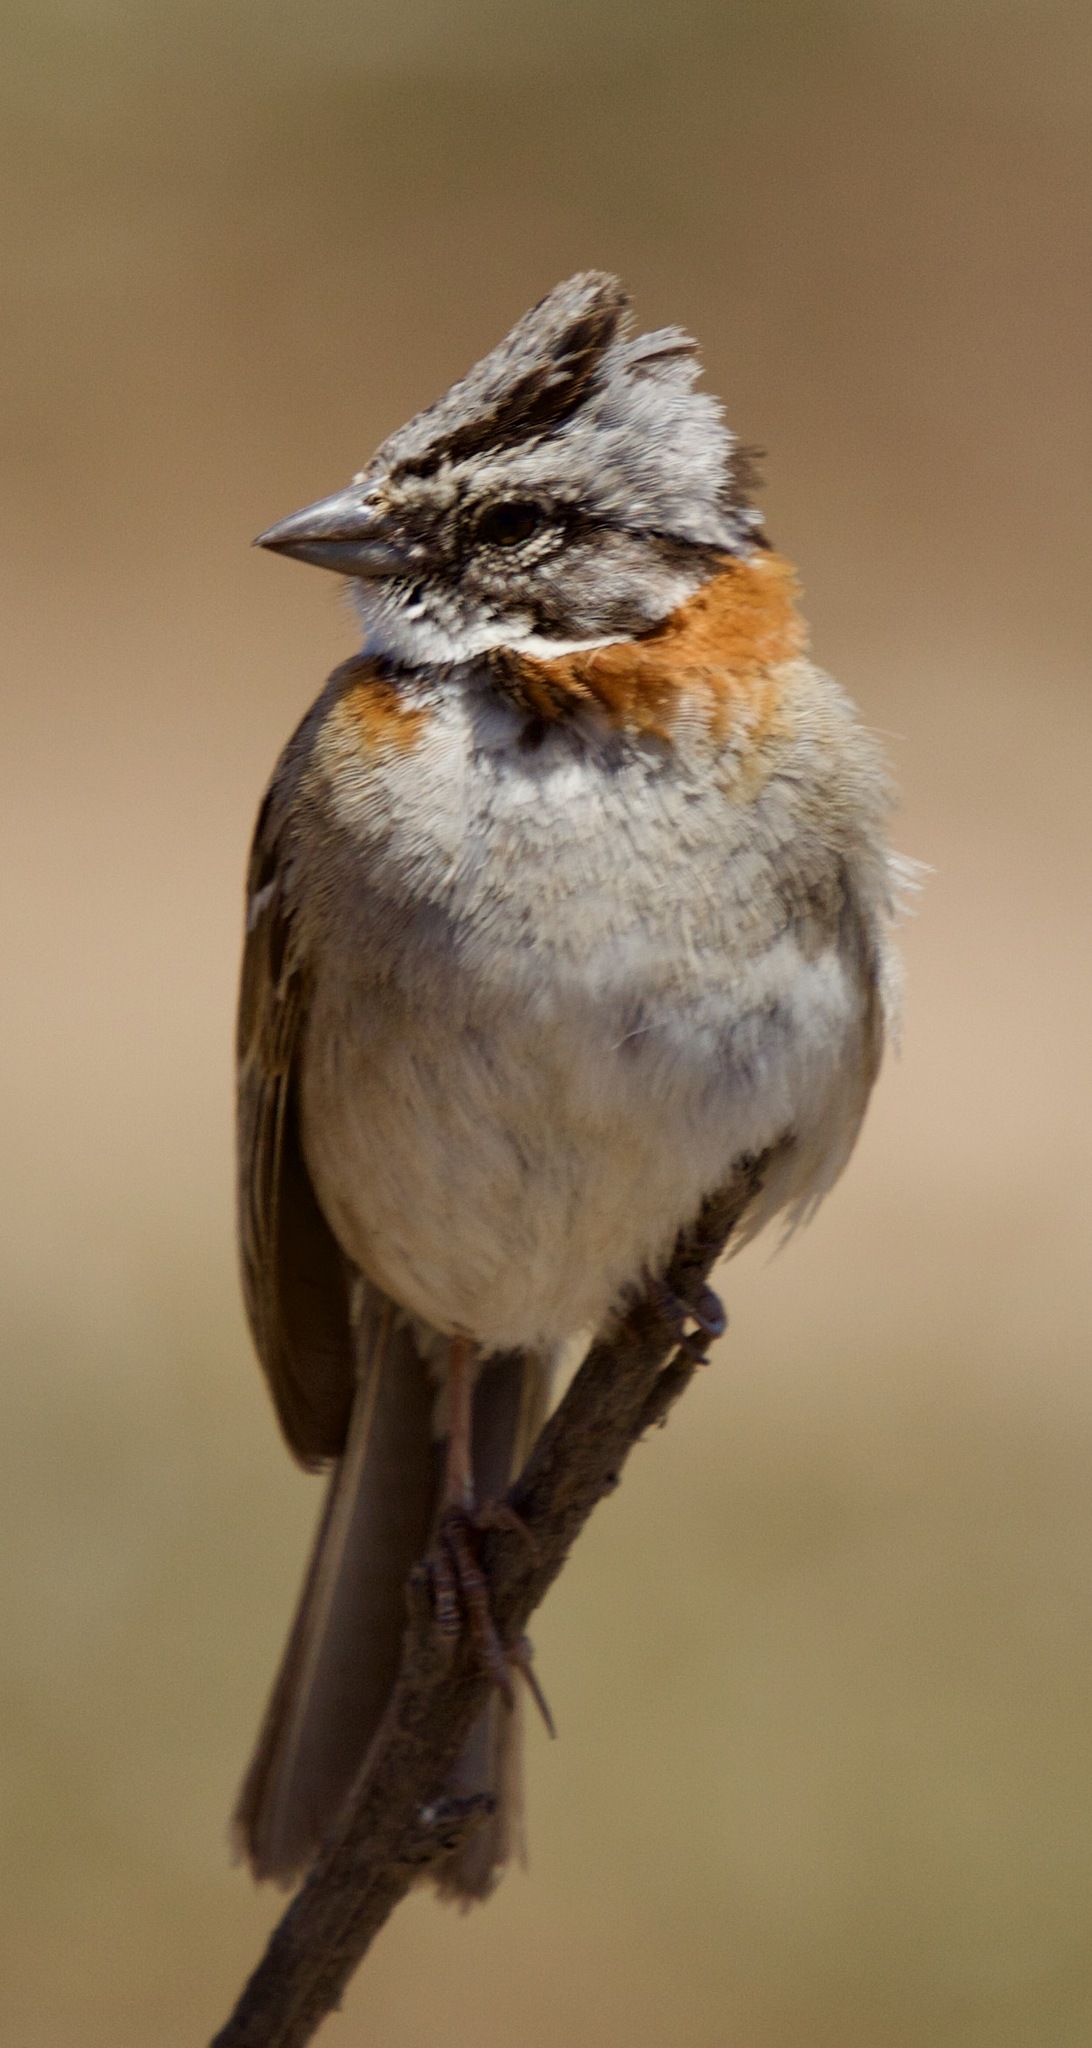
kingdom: Animalia
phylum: Chordata
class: Aves
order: Passeriformes
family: Passerellidae
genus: Zonotrichia
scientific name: Zonotrichia capensis
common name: Rufous-collared sparrow
